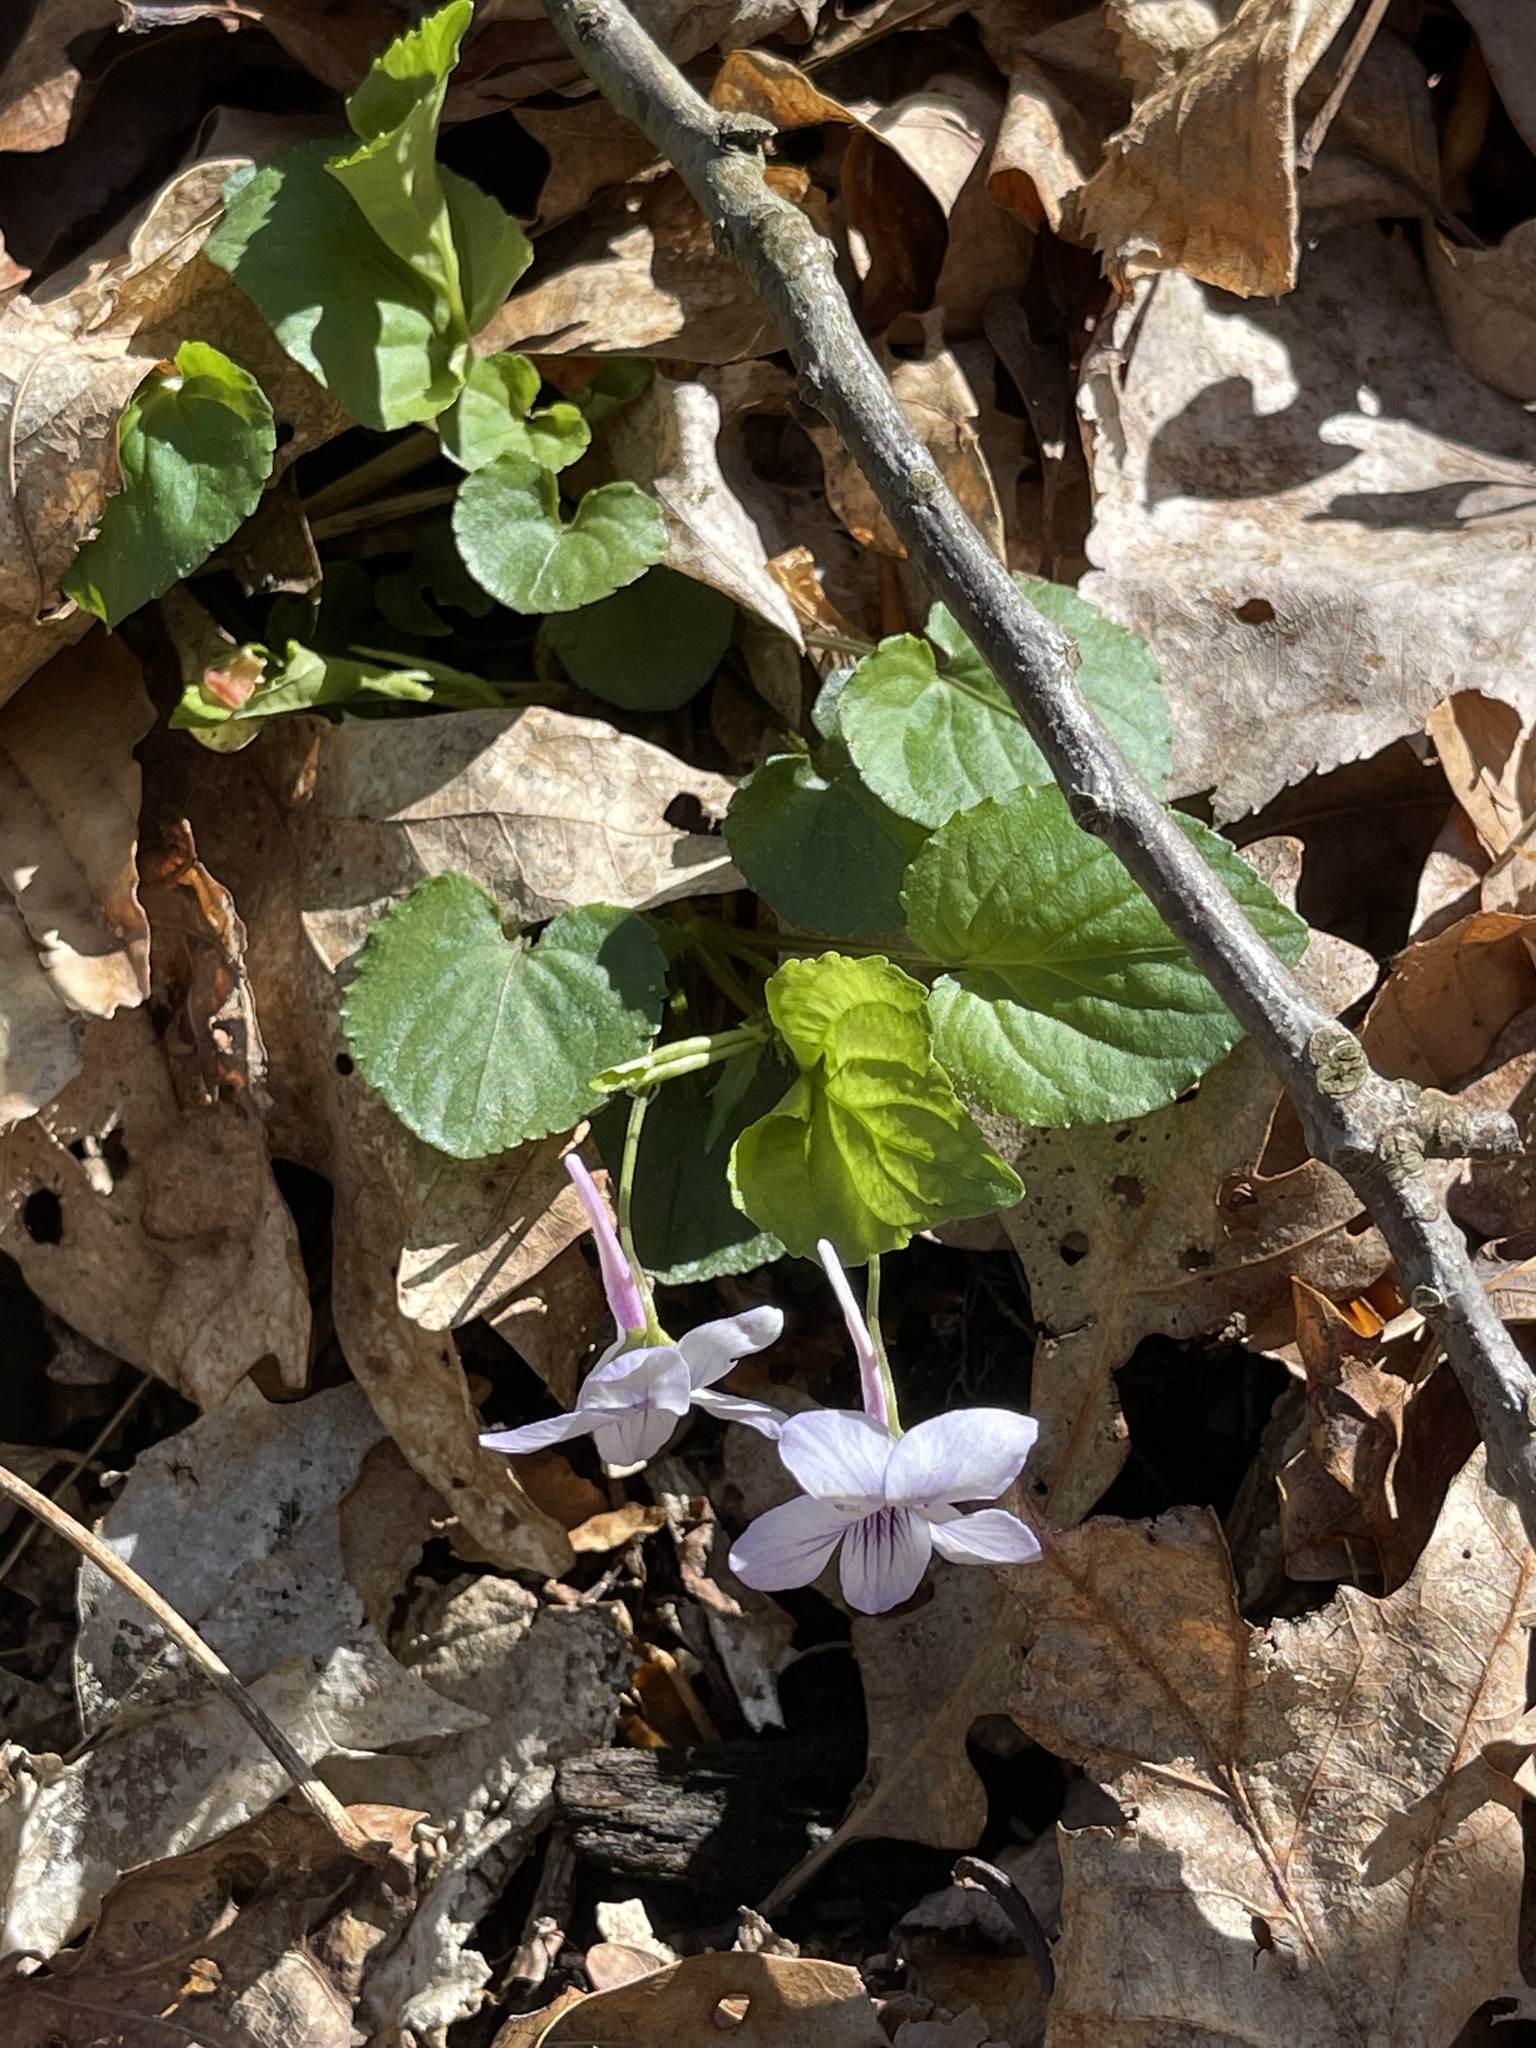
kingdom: Plantae
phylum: Tracheophyta
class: Magnoliopsida
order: Malpighiales
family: Violaceae
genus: Viola
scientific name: Viola rostrata
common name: Long-spur violet
